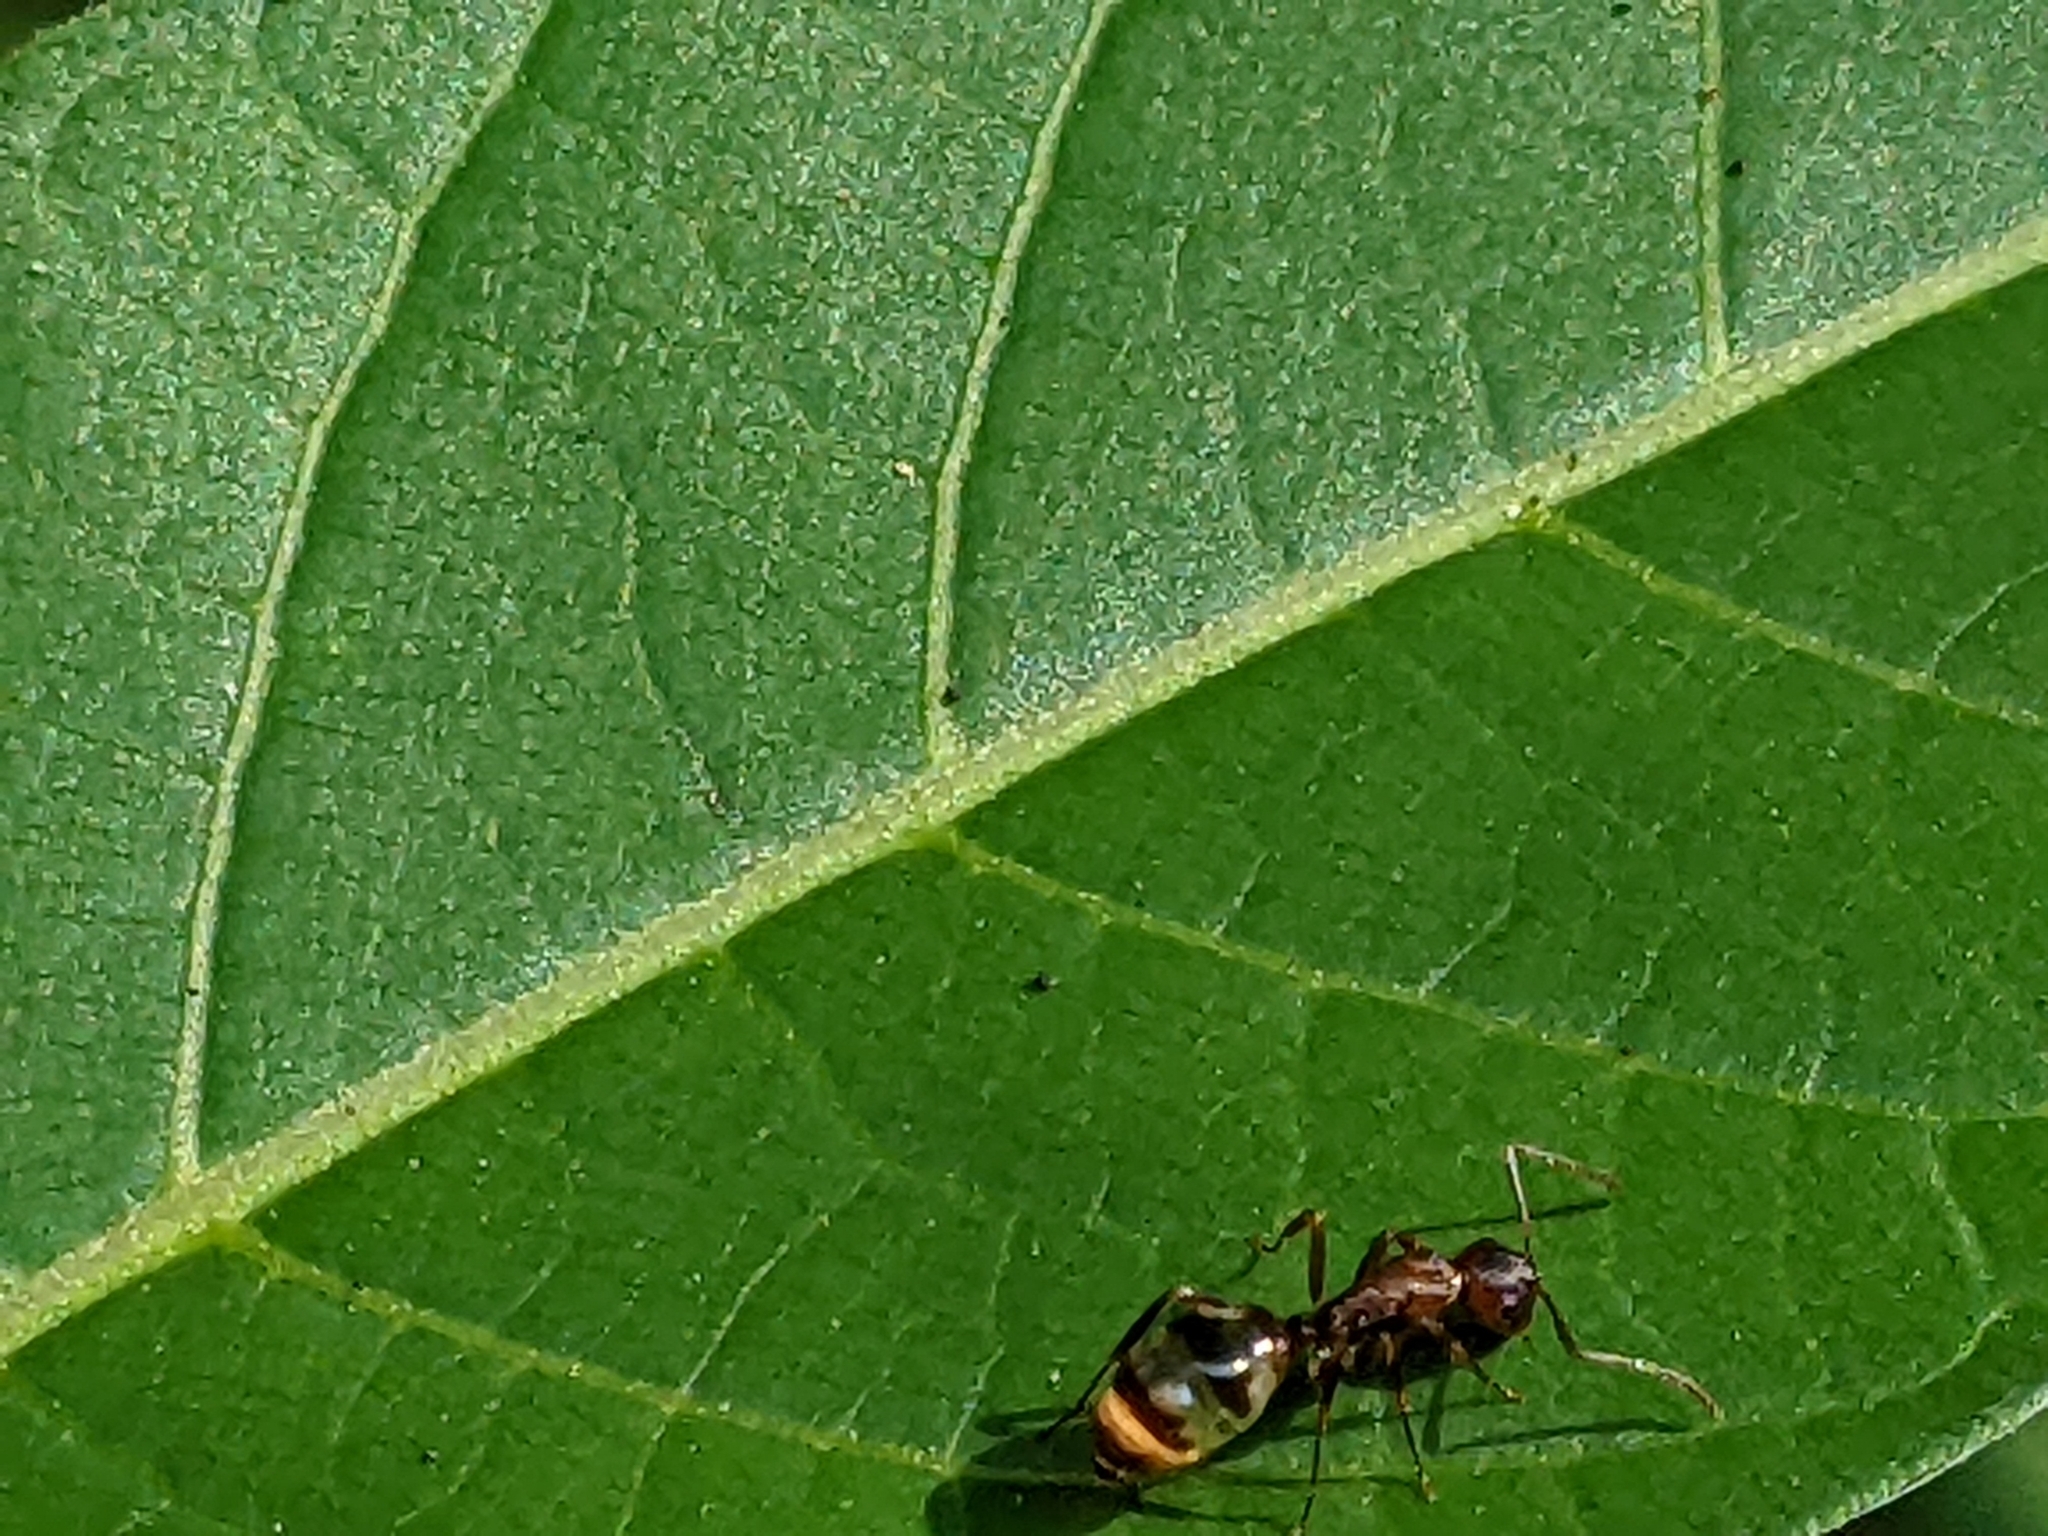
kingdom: Animalia
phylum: Arthropoda
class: Insecta
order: Hymenoptera
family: Formicidae
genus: Camponotus
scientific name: Camponotus subbarbatus
